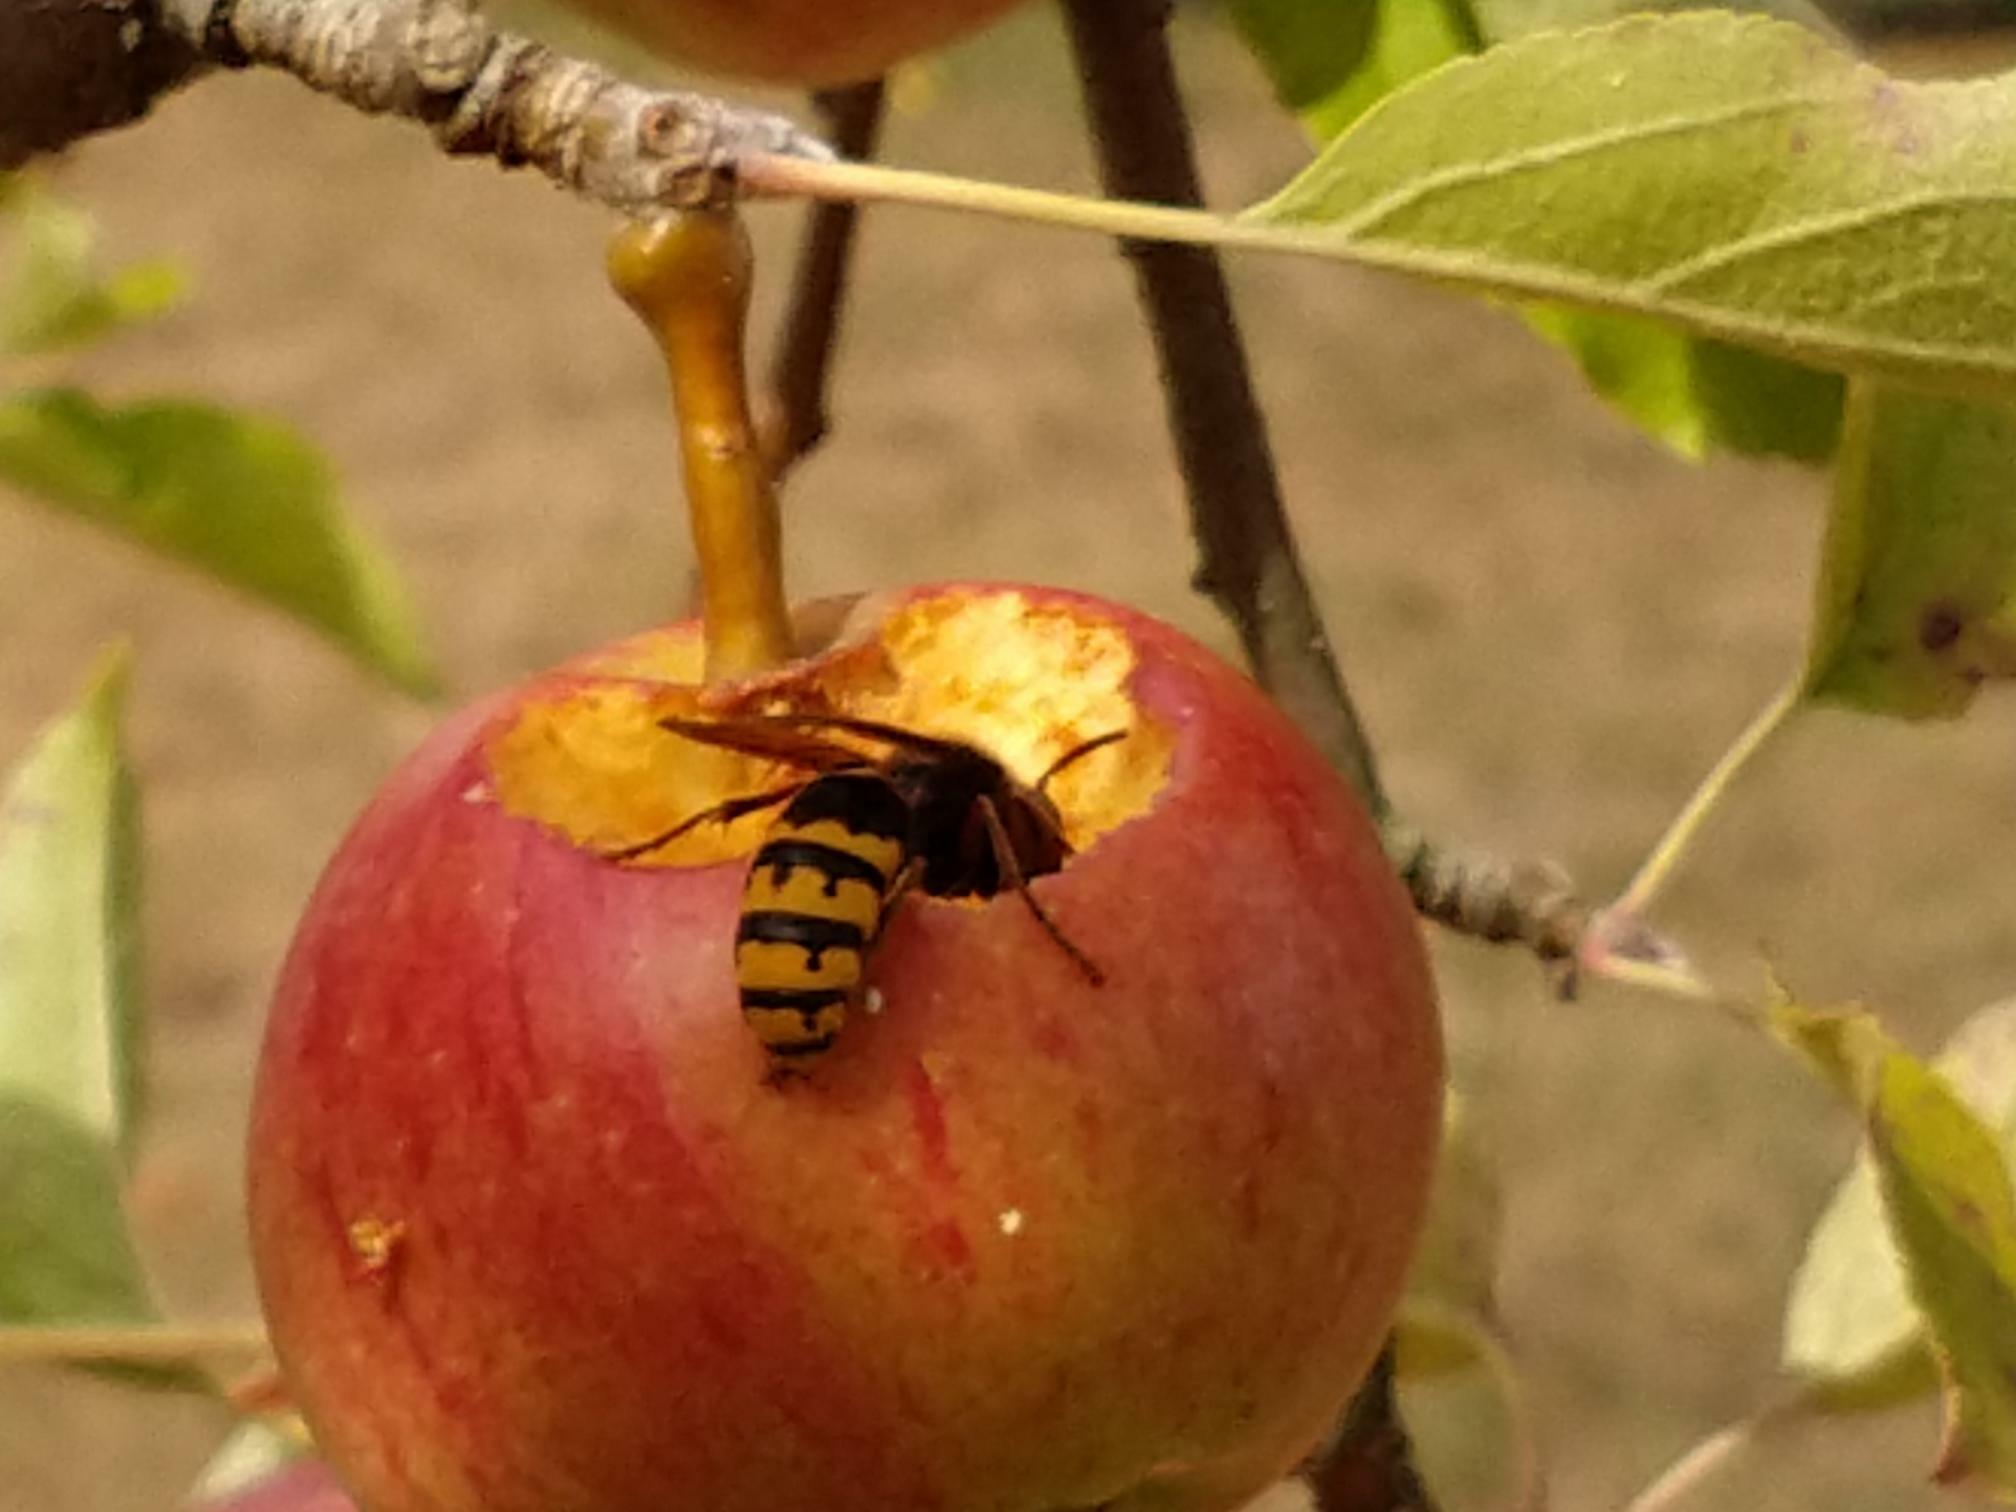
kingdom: Animalia
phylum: Arthropoda
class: Insecta
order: Hymenoptera
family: Vespidae
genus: Vespa
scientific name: Vespa crabro
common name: Hornet
